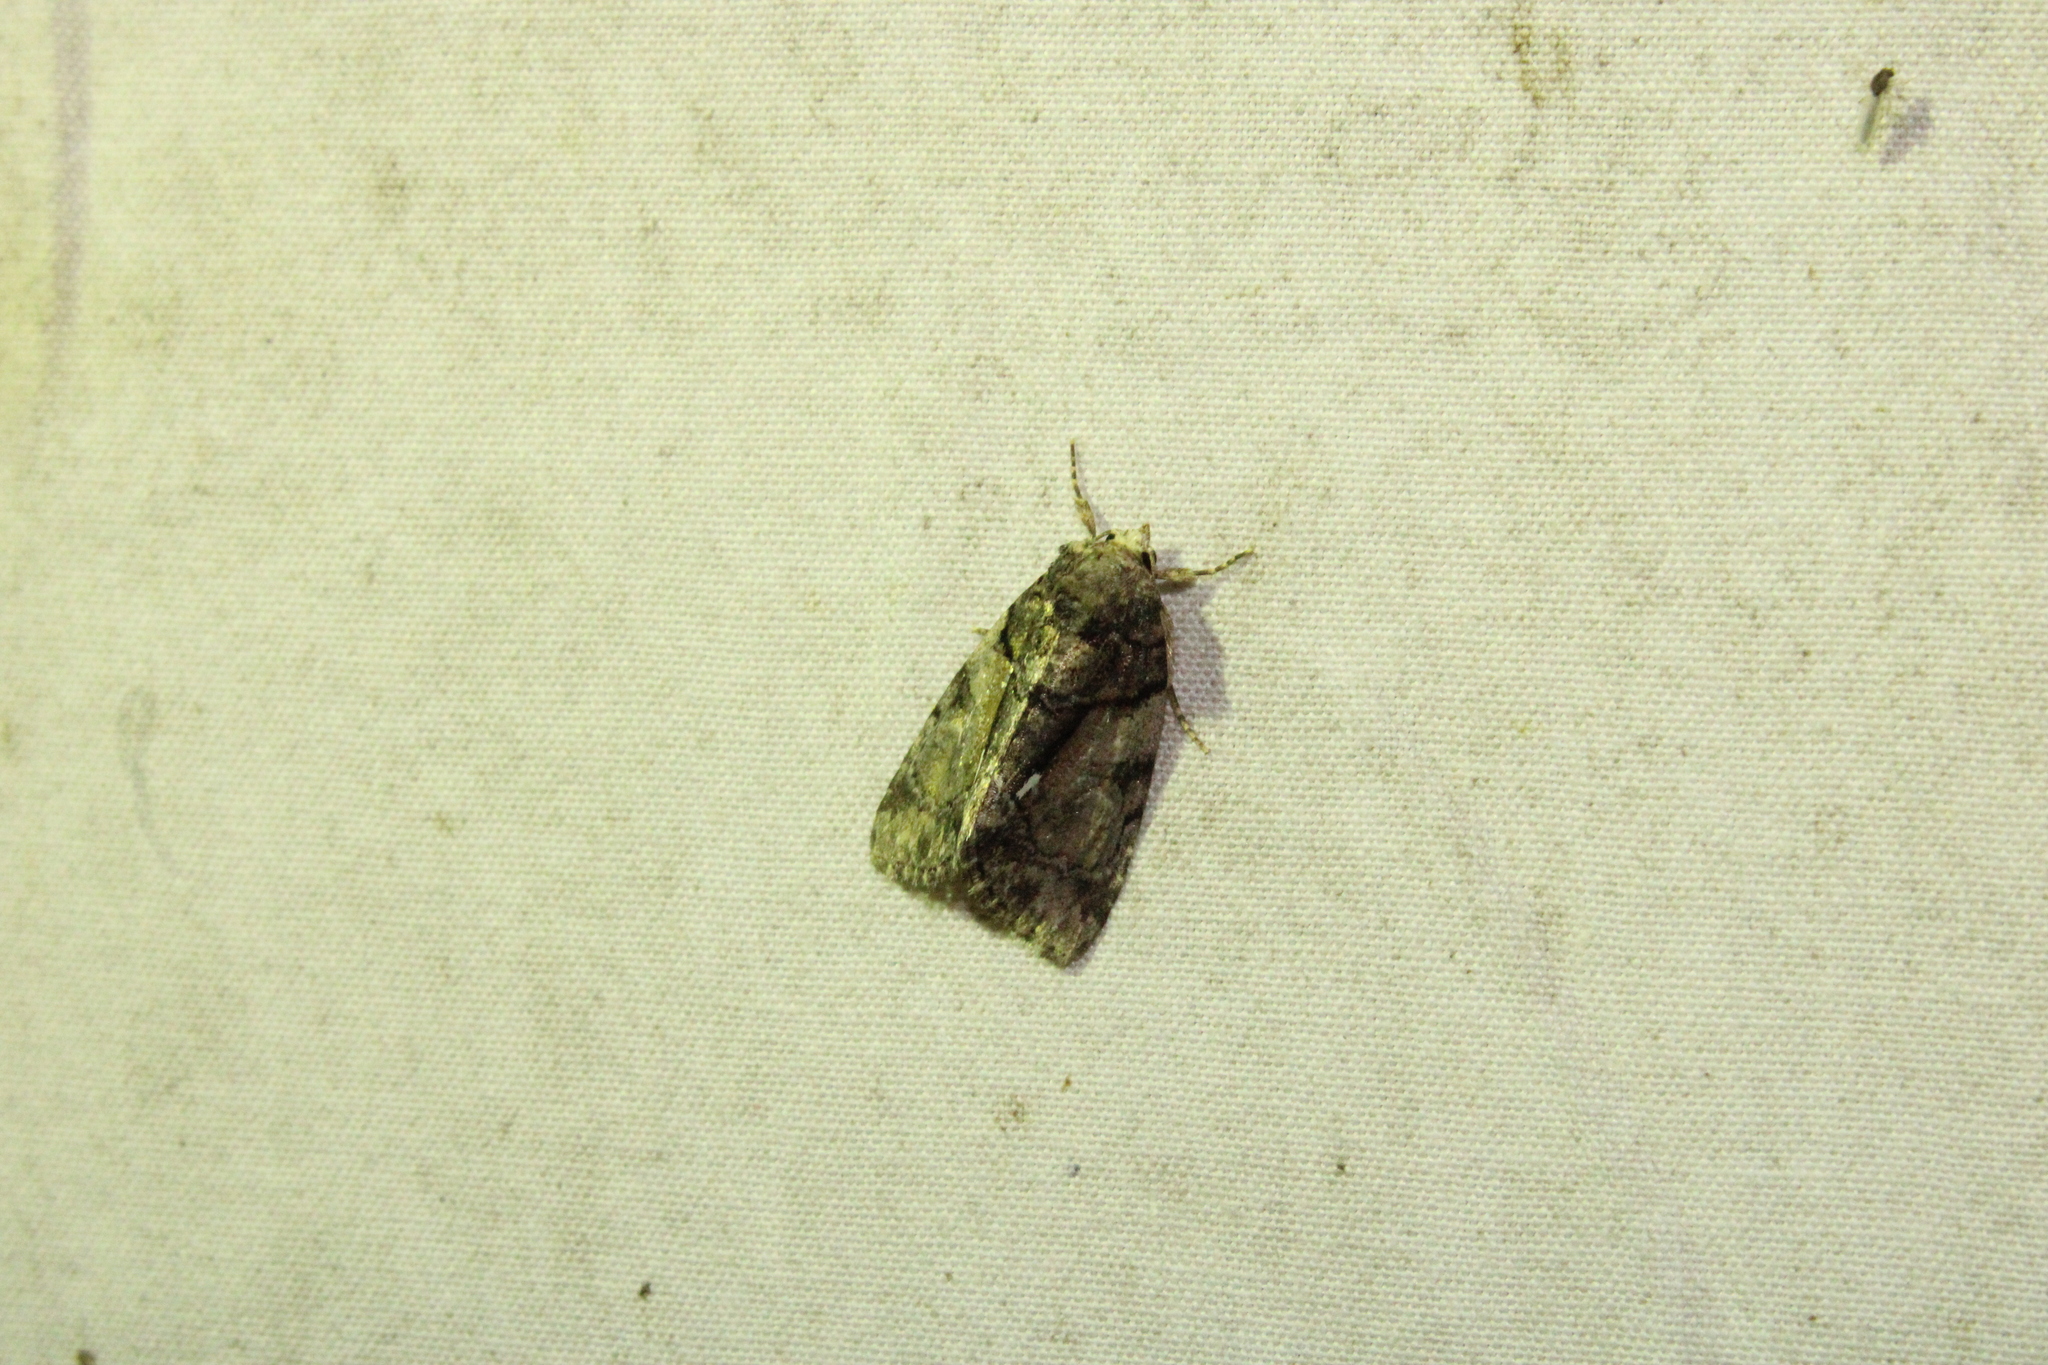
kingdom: Animalia
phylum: Arthropoda
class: Insecta
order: Lepidoptera
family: Noctuidae
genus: Chytonix
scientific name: Chytonix palliatricula
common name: Cloaked marvel
